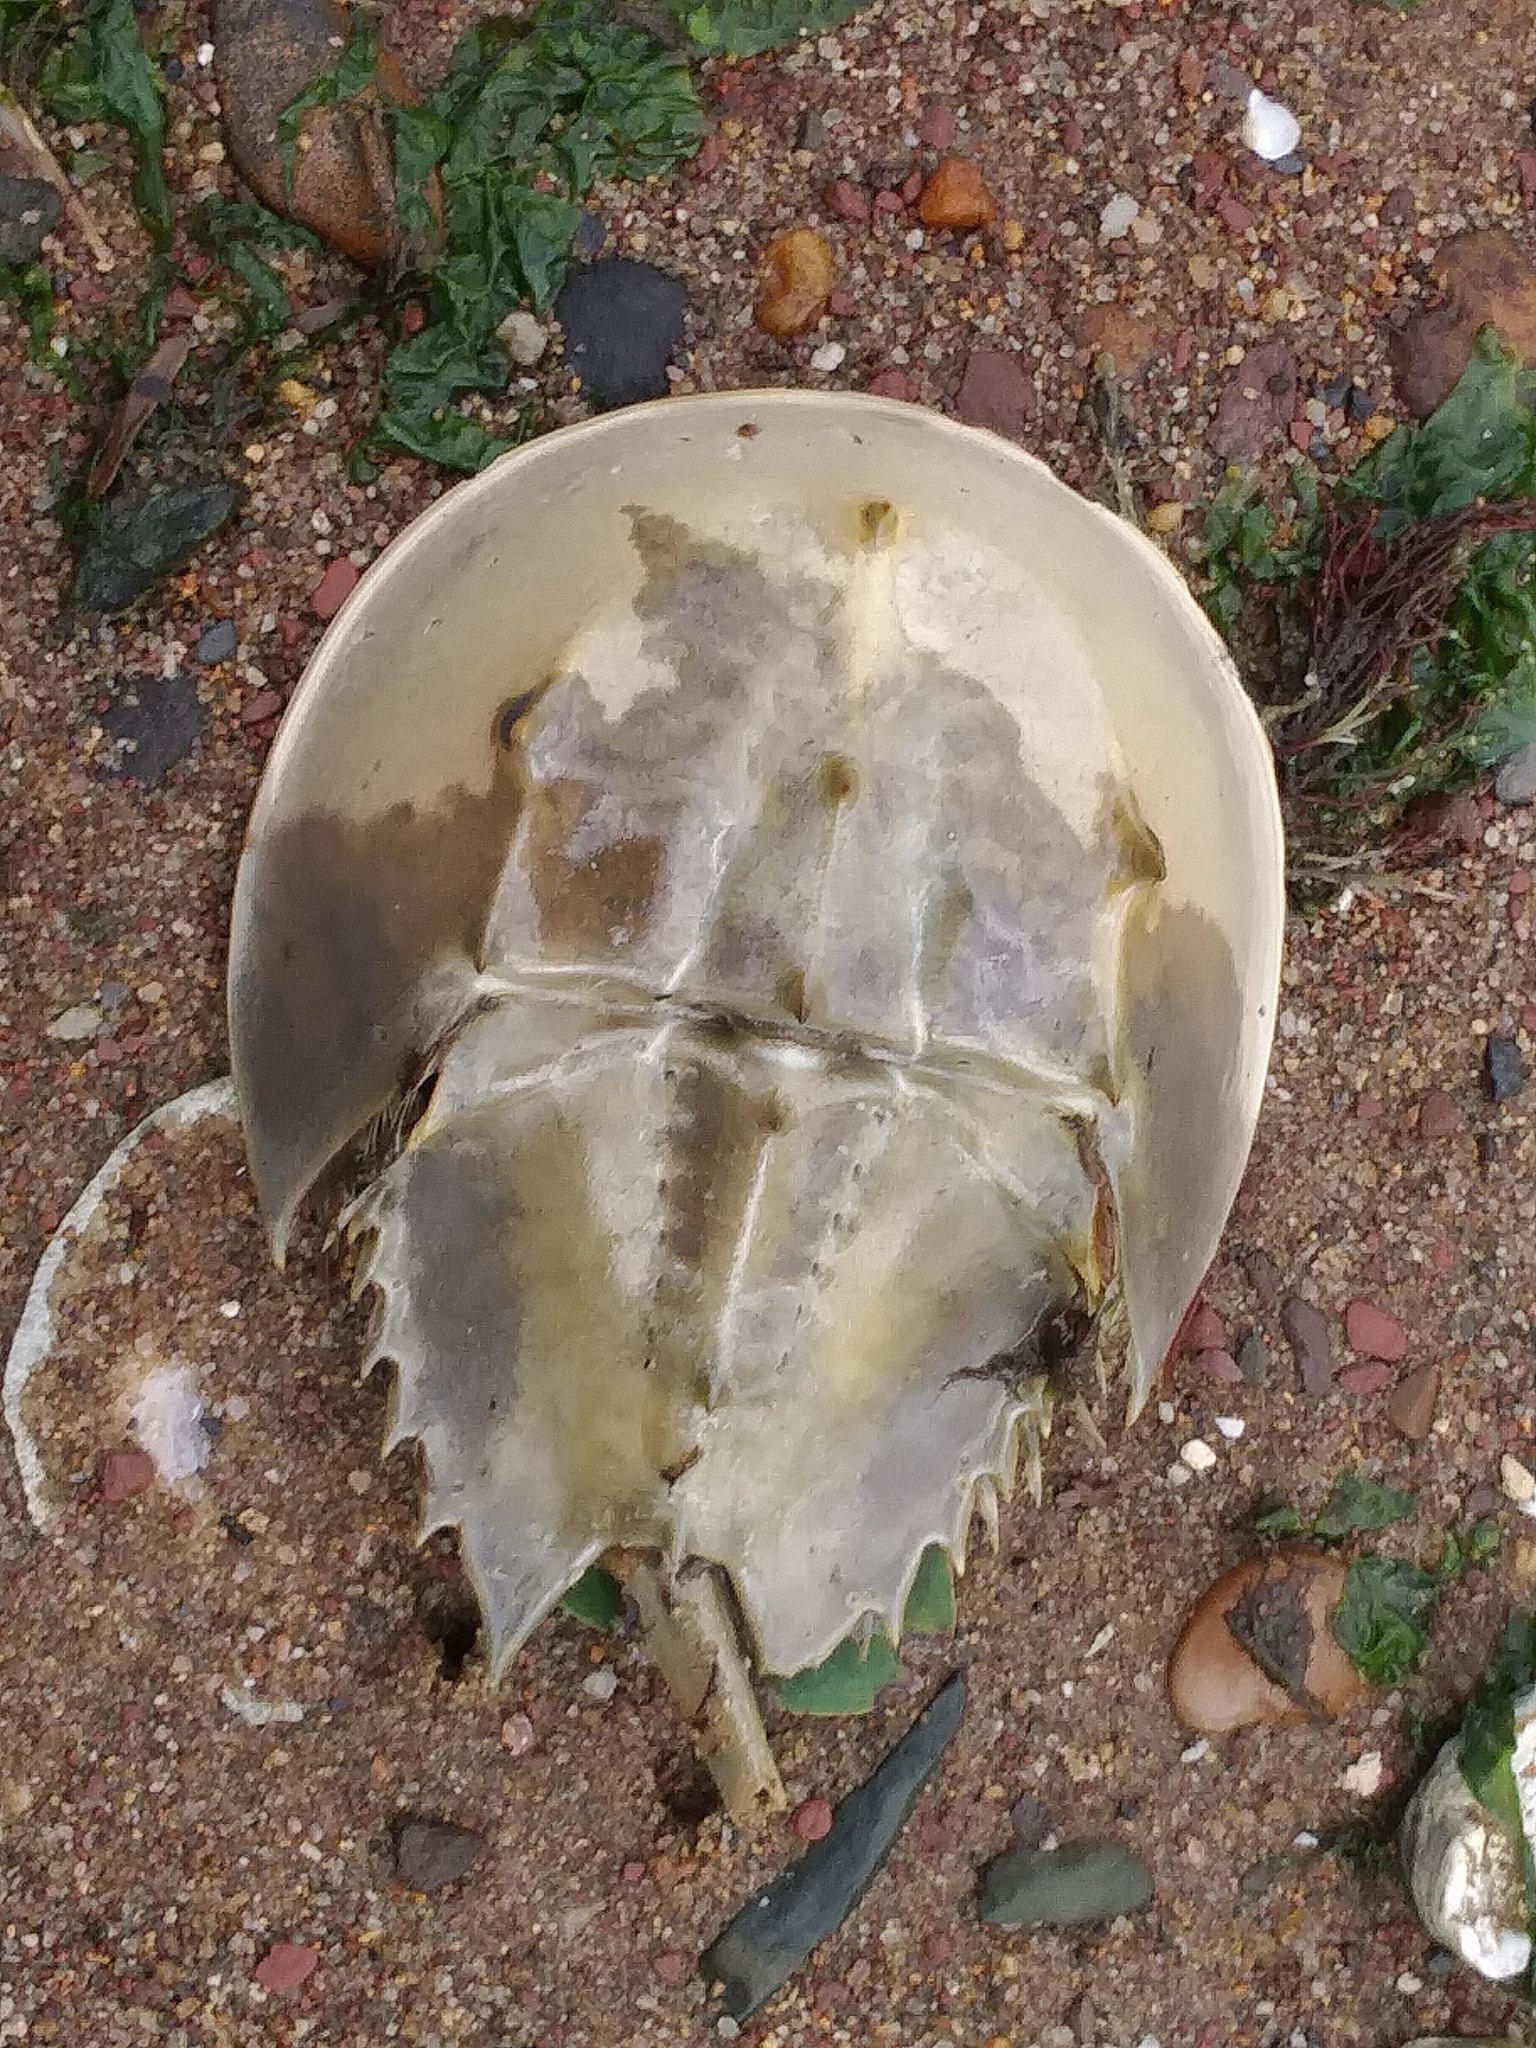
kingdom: Animalia
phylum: Arthropoda
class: Merostomata
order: Xiphosurida
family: Limulidae
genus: Limulus
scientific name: Limulus polyphemus
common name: Horseshoe crab
